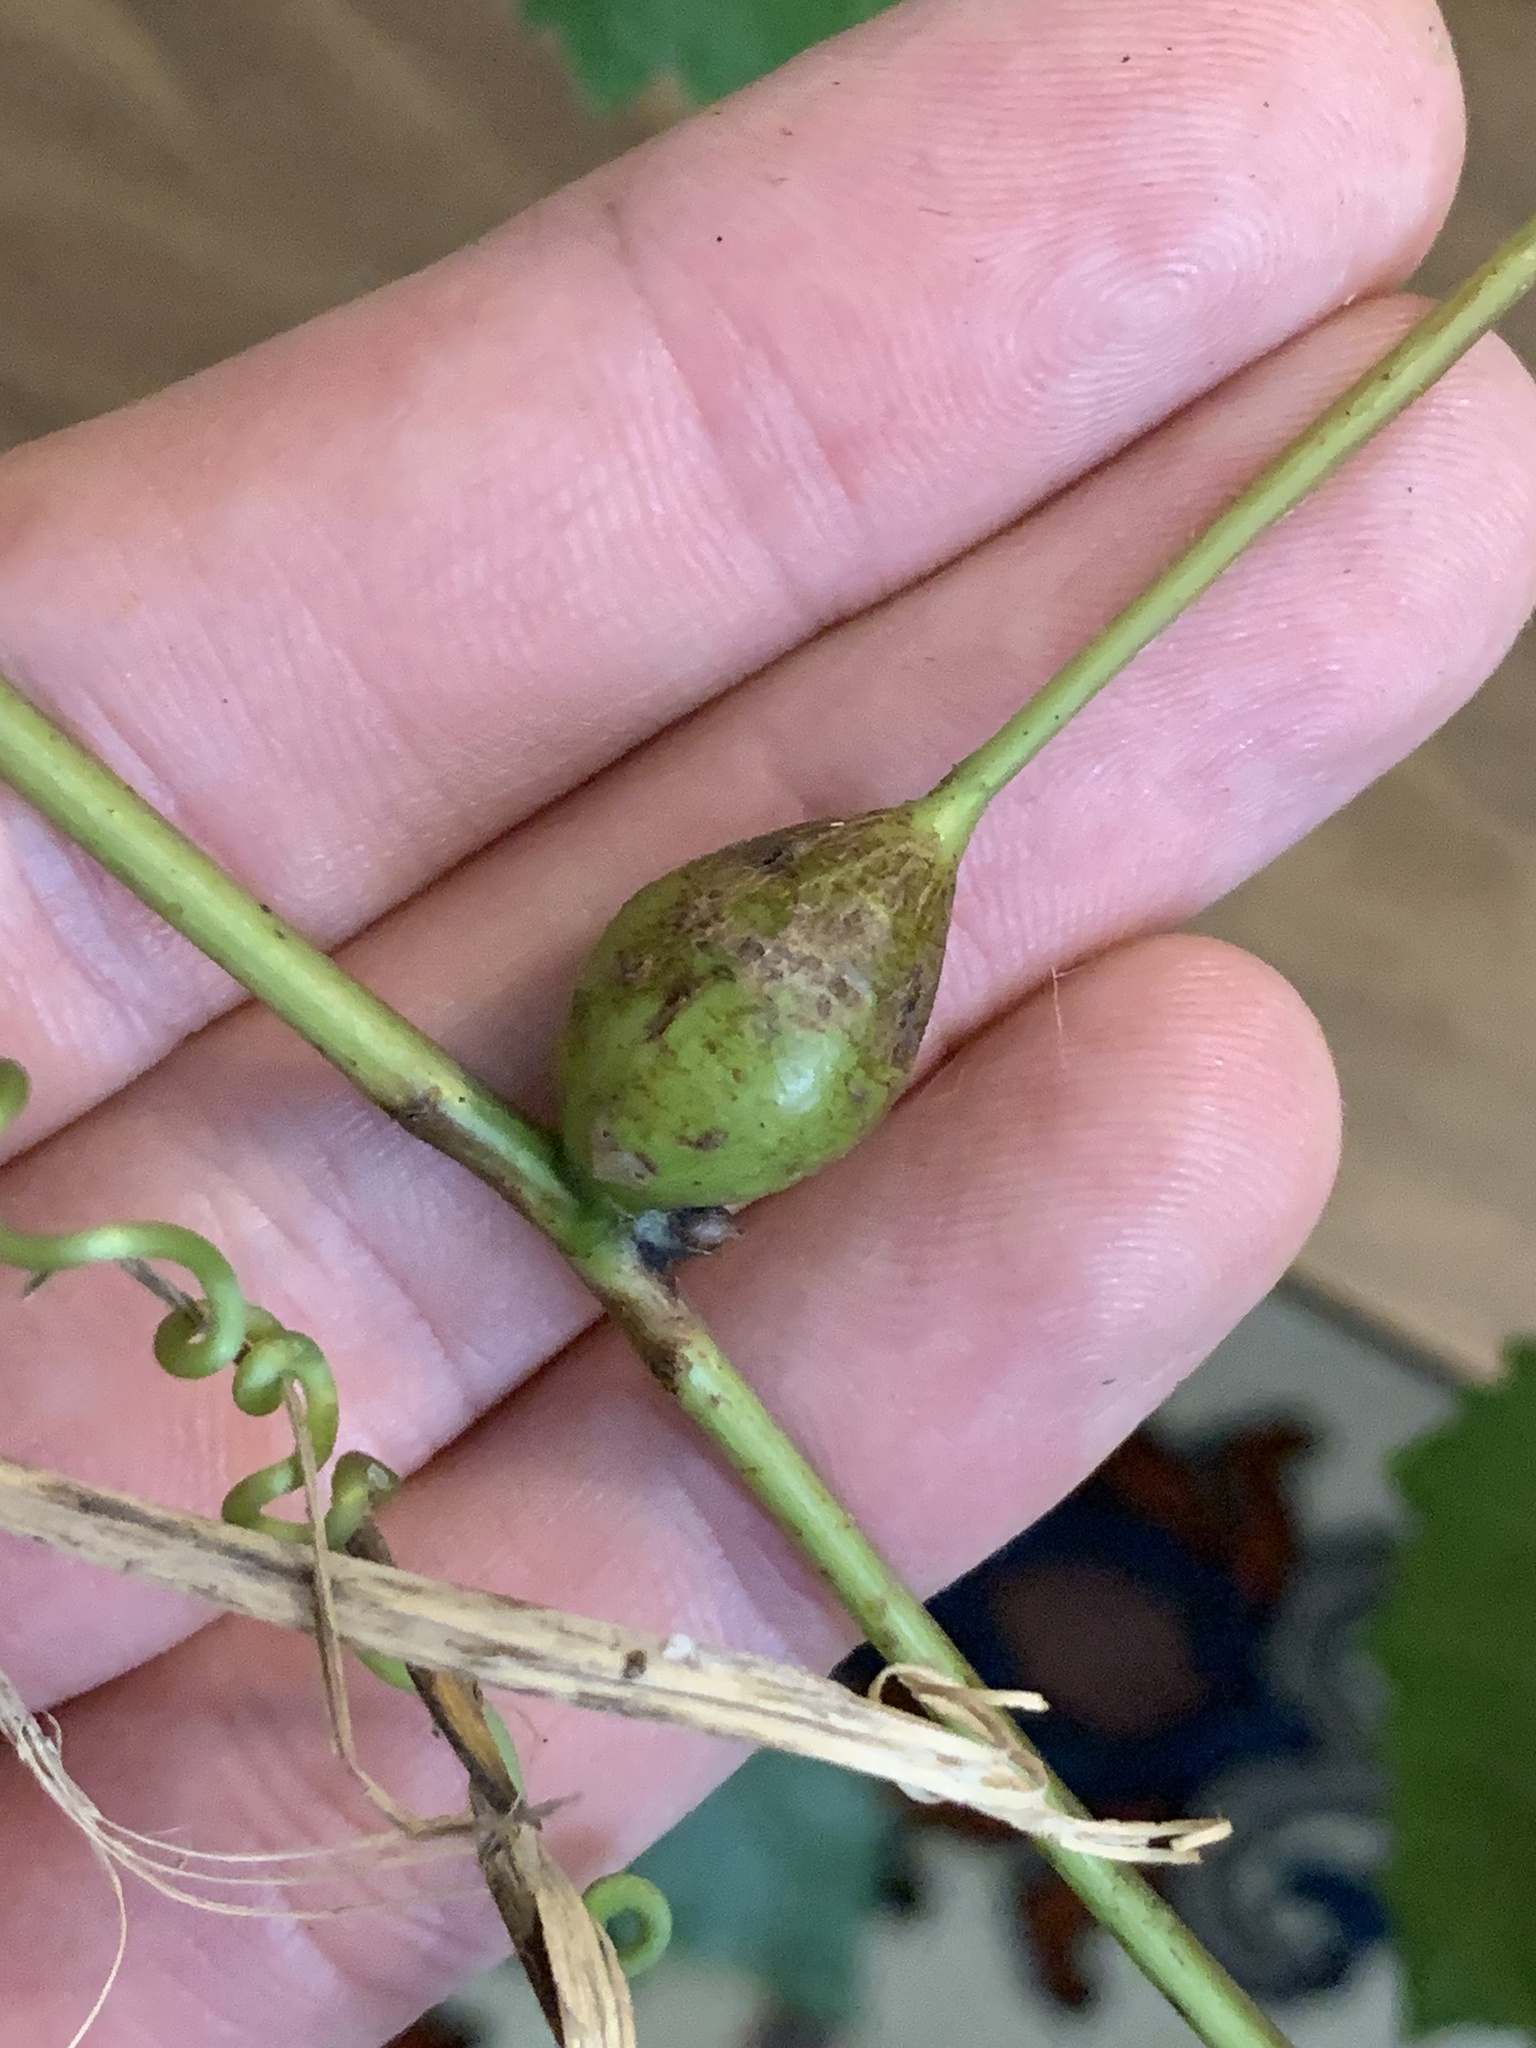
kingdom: Animalia
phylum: Arthropoda
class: Insecta
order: Diptera
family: Cecidomyiidae
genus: Neolasioptera
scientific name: Neolasioptera vitinea
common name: Grape leaf petiole gall
